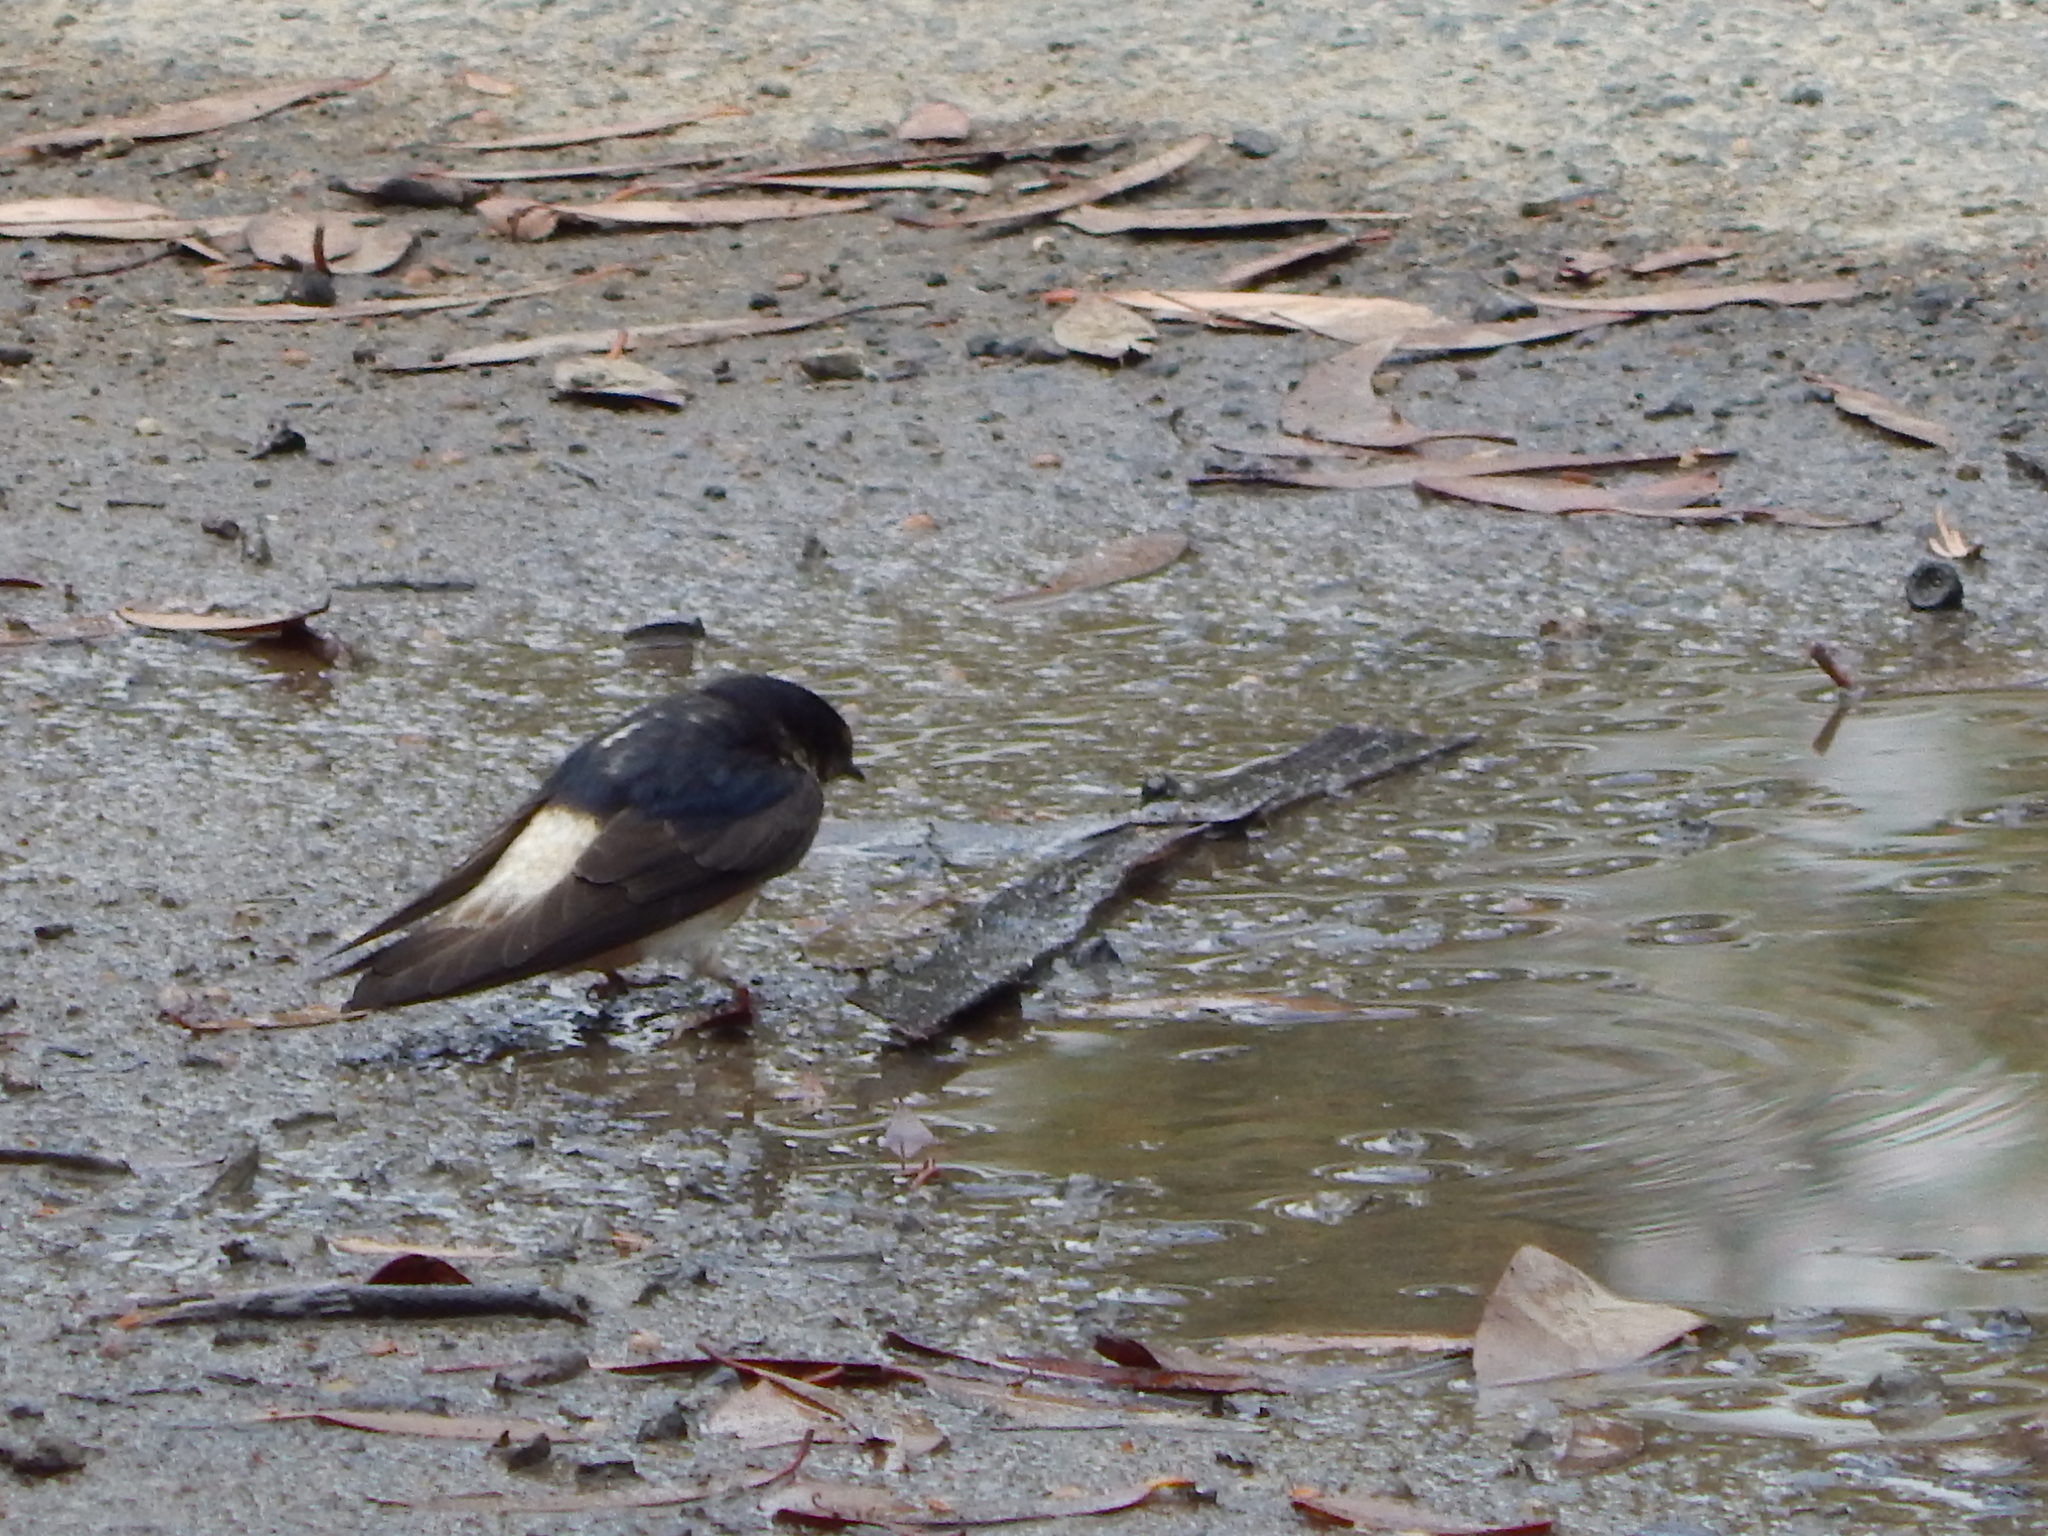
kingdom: Animalia
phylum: Chordata
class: Aves
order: Passeriformes
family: Hirundinidae
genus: Petrochelidon
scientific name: Petrochelidon nigricans
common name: Tree martin
